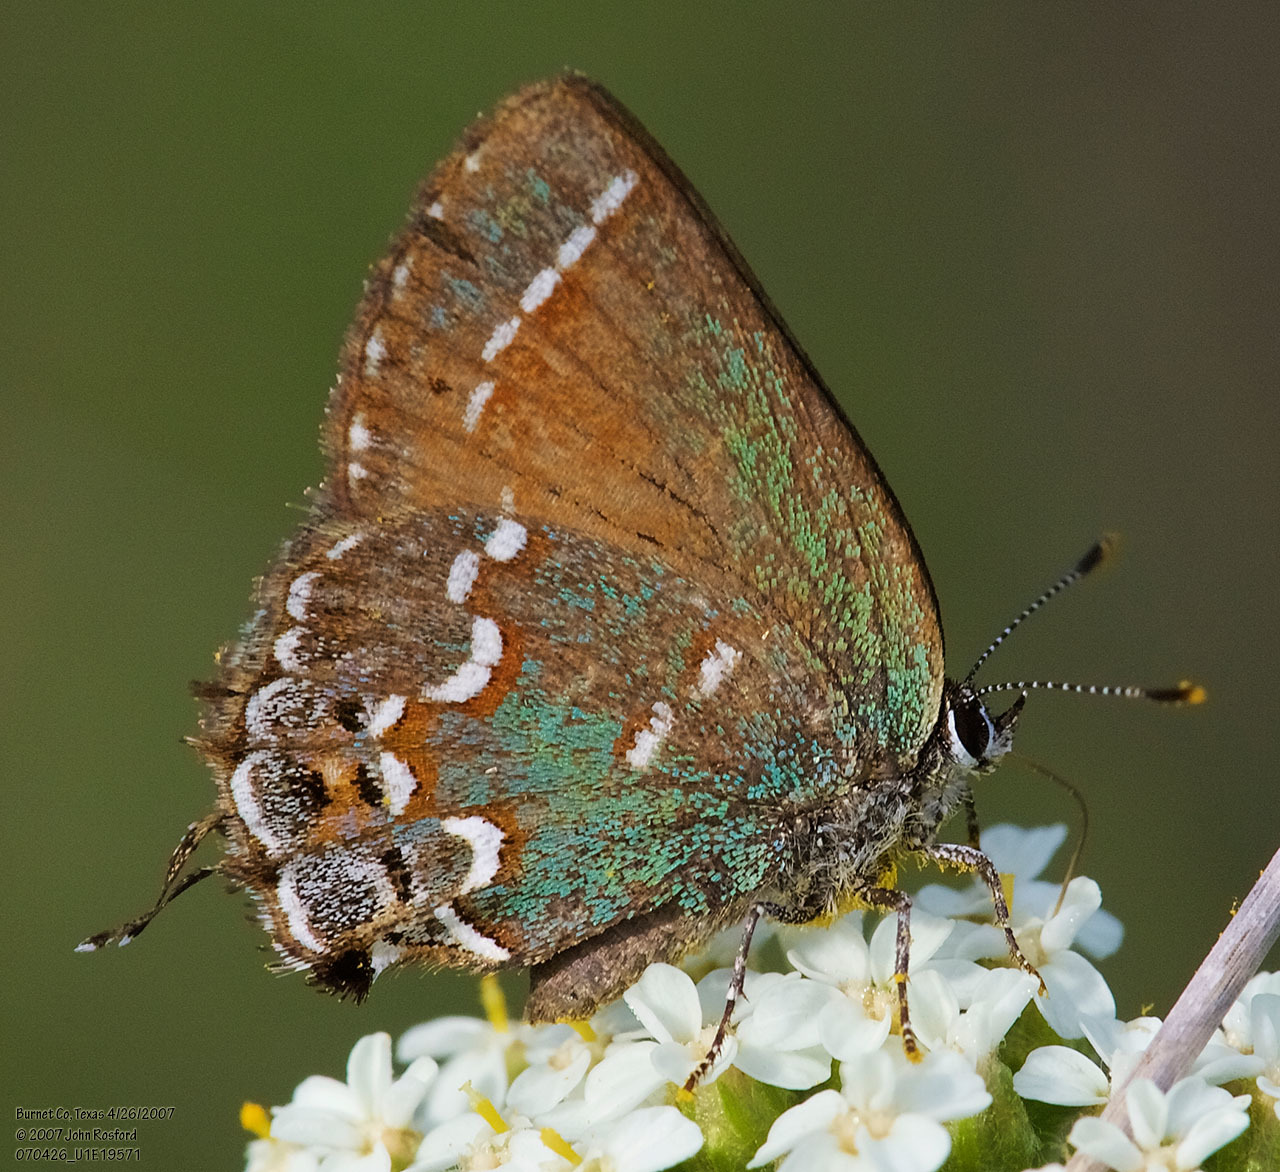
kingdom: Animalia
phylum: Arthropoda
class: Insecta
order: Lepidoptera
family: Lycaenidae
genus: Mitoura
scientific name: Mitoura gryneus
